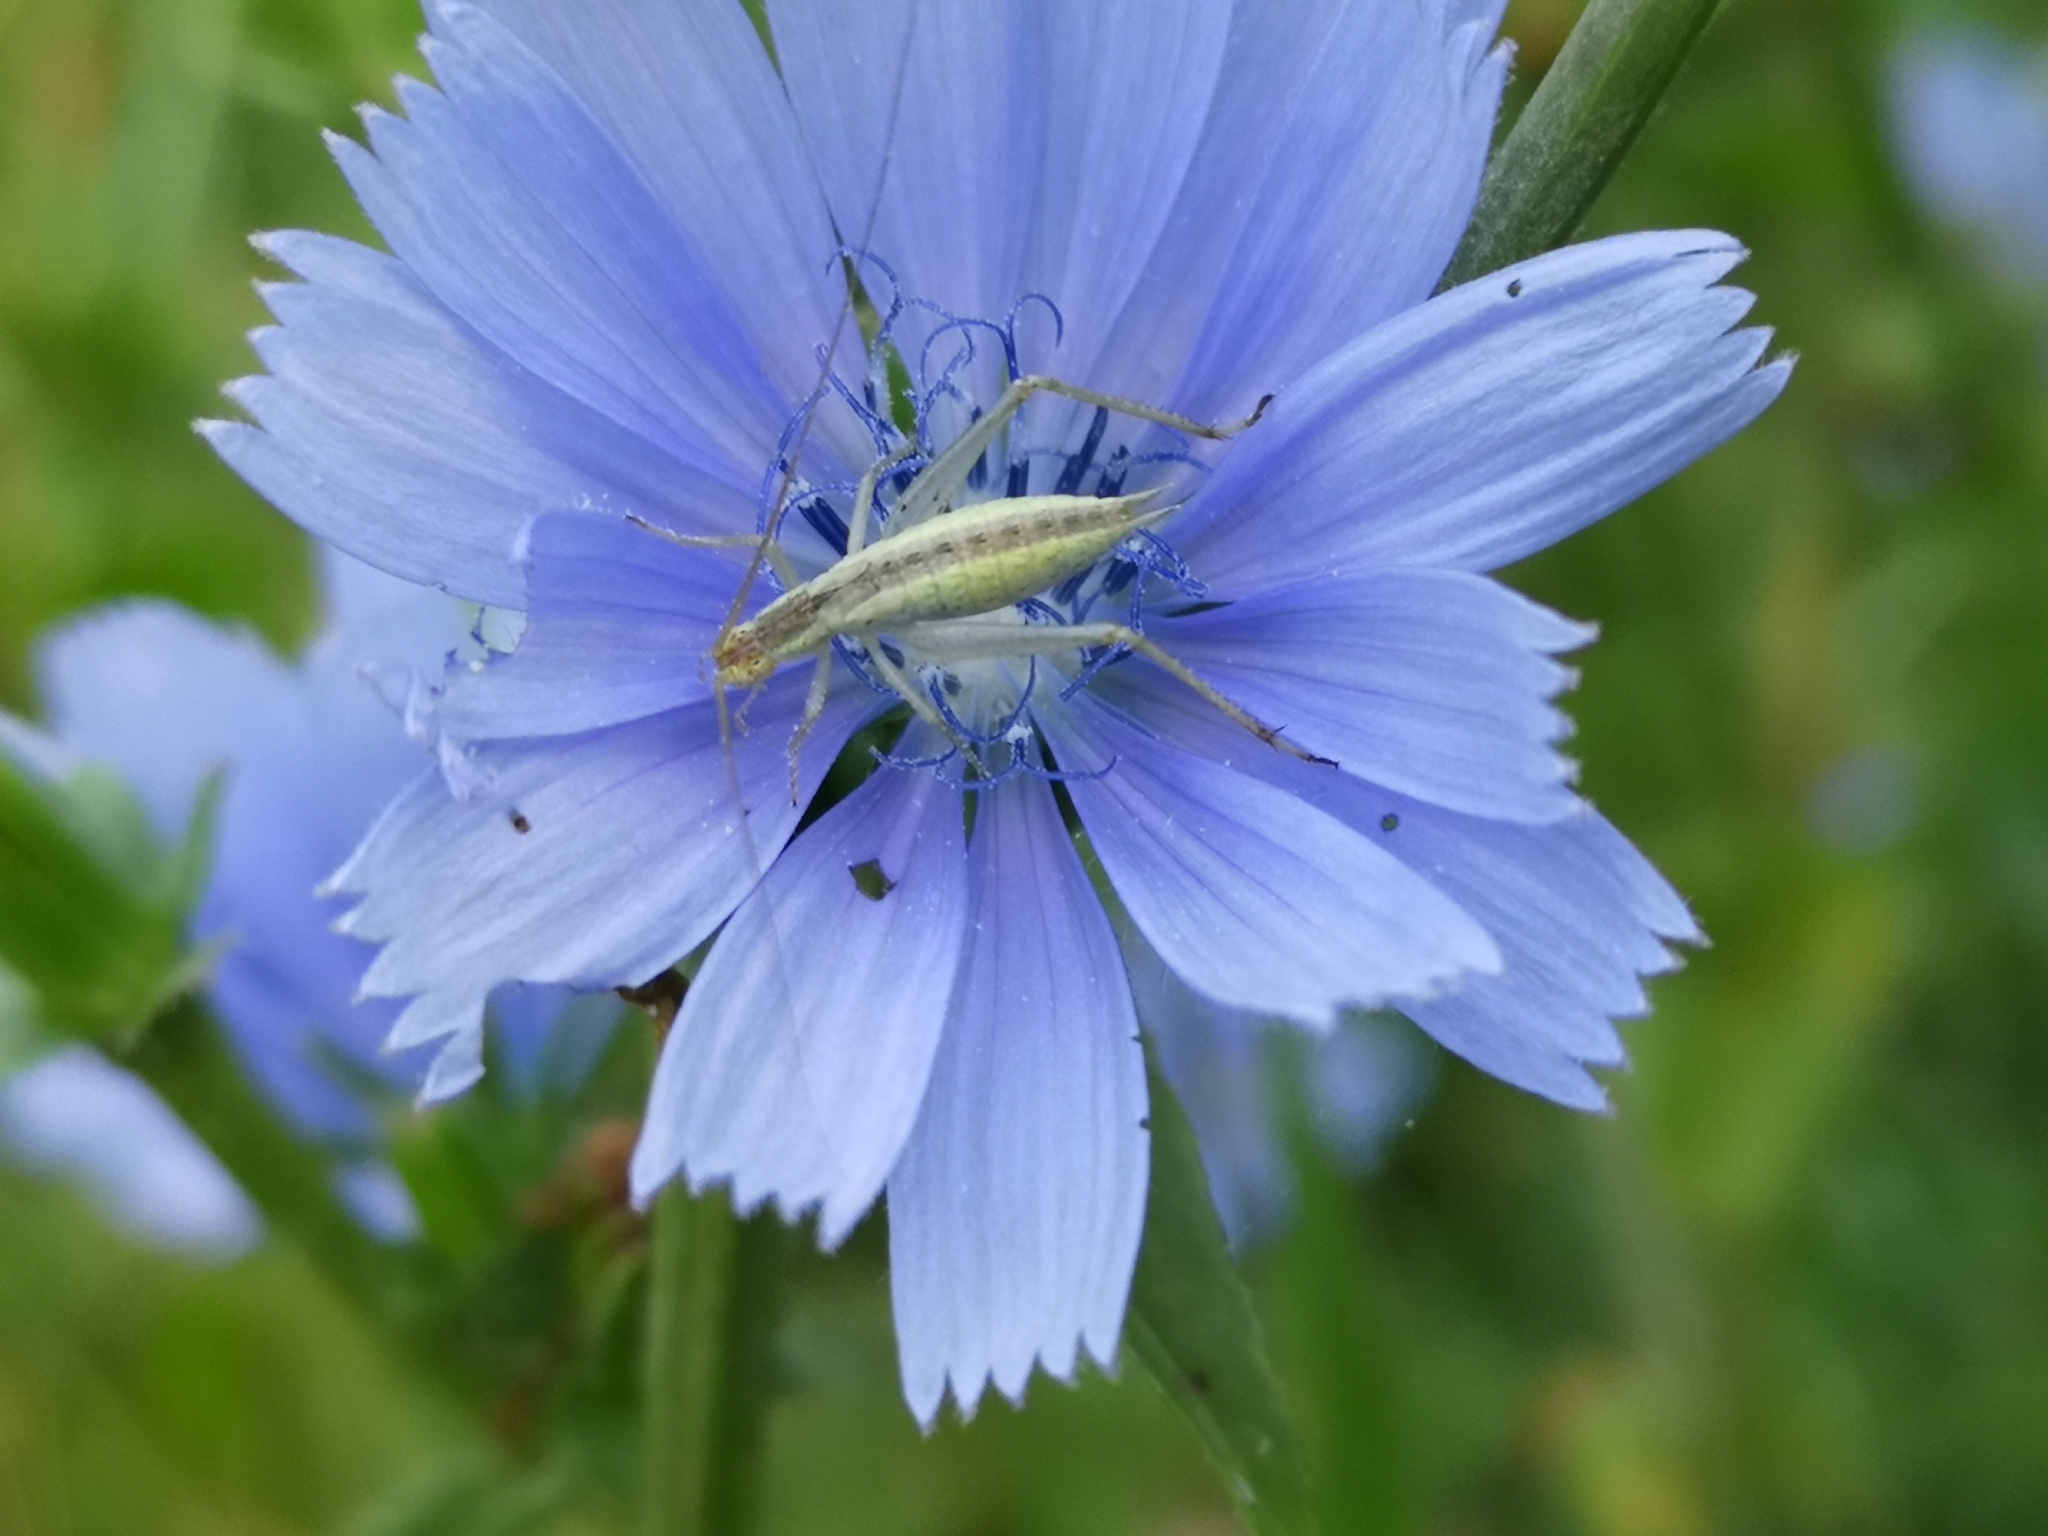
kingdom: Animalia
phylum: Arthropoda
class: Insecta
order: Orthoptera
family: Gryllidae
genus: Oecanthus
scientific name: Oecanthus pellucens
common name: Tree-cricket
